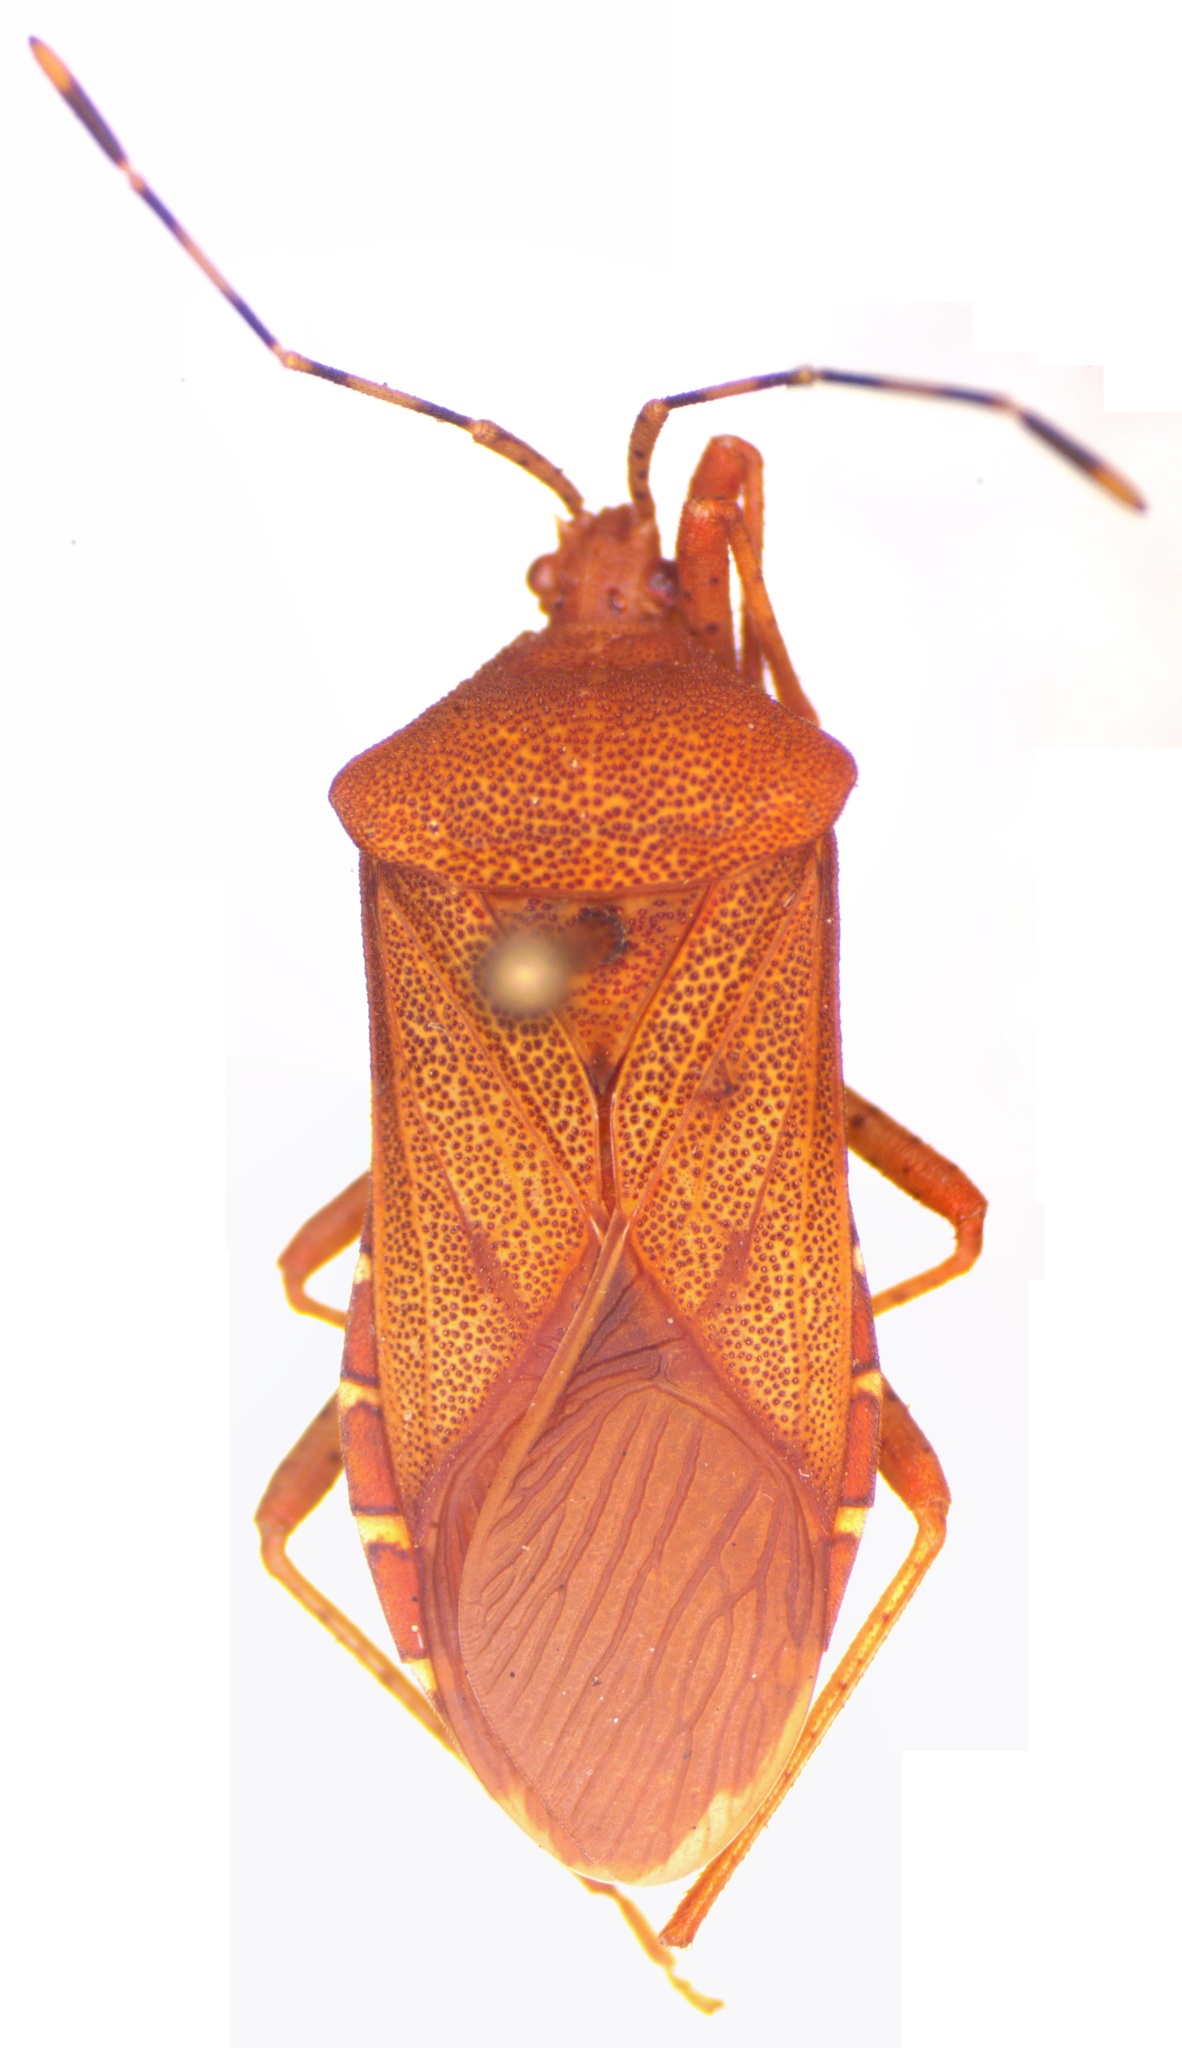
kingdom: Animalia
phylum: Arthropoda
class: Insecta
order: Hemiptera
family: Coreidae
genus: Anasa
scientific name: Anasa bellator
